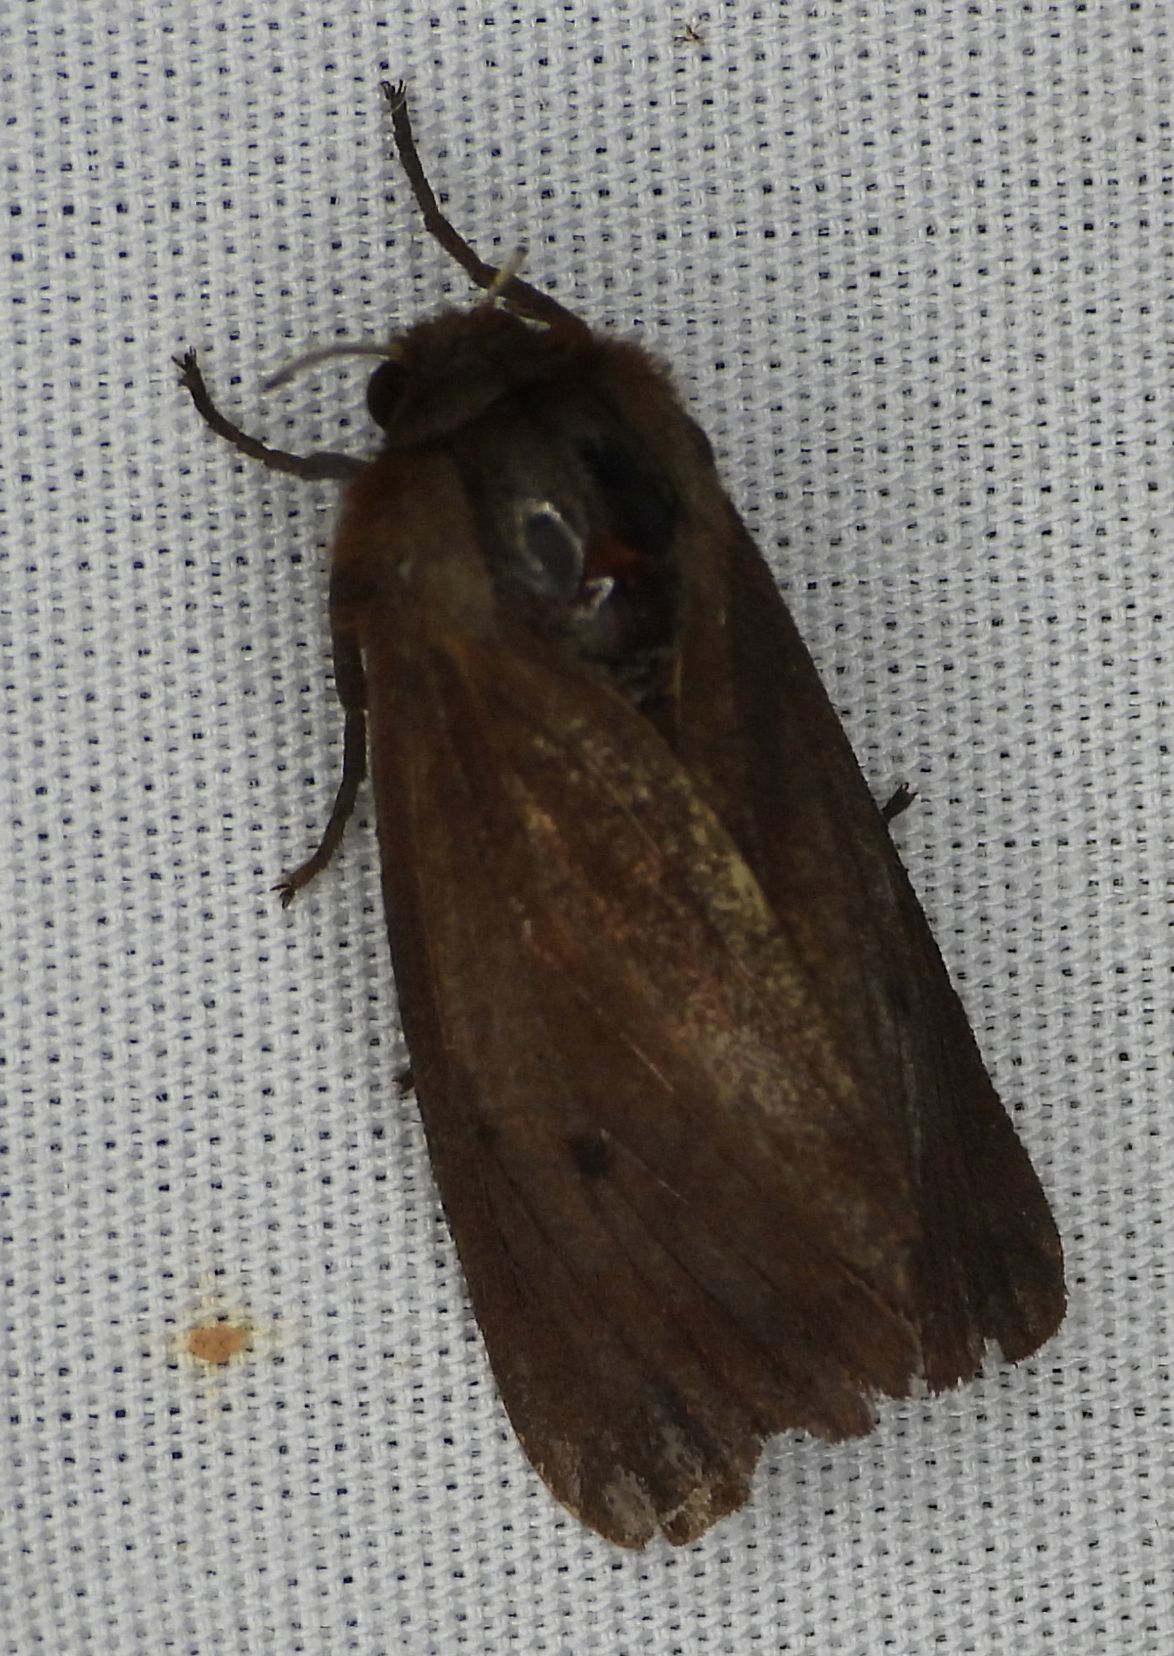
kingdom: Animalia
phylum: Arthropoda
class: Insecta
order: Lepidoptera
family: Erebidae
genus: Phragmatobia
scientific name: Phragmatobia fuliginosa
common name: Ruby tiger
